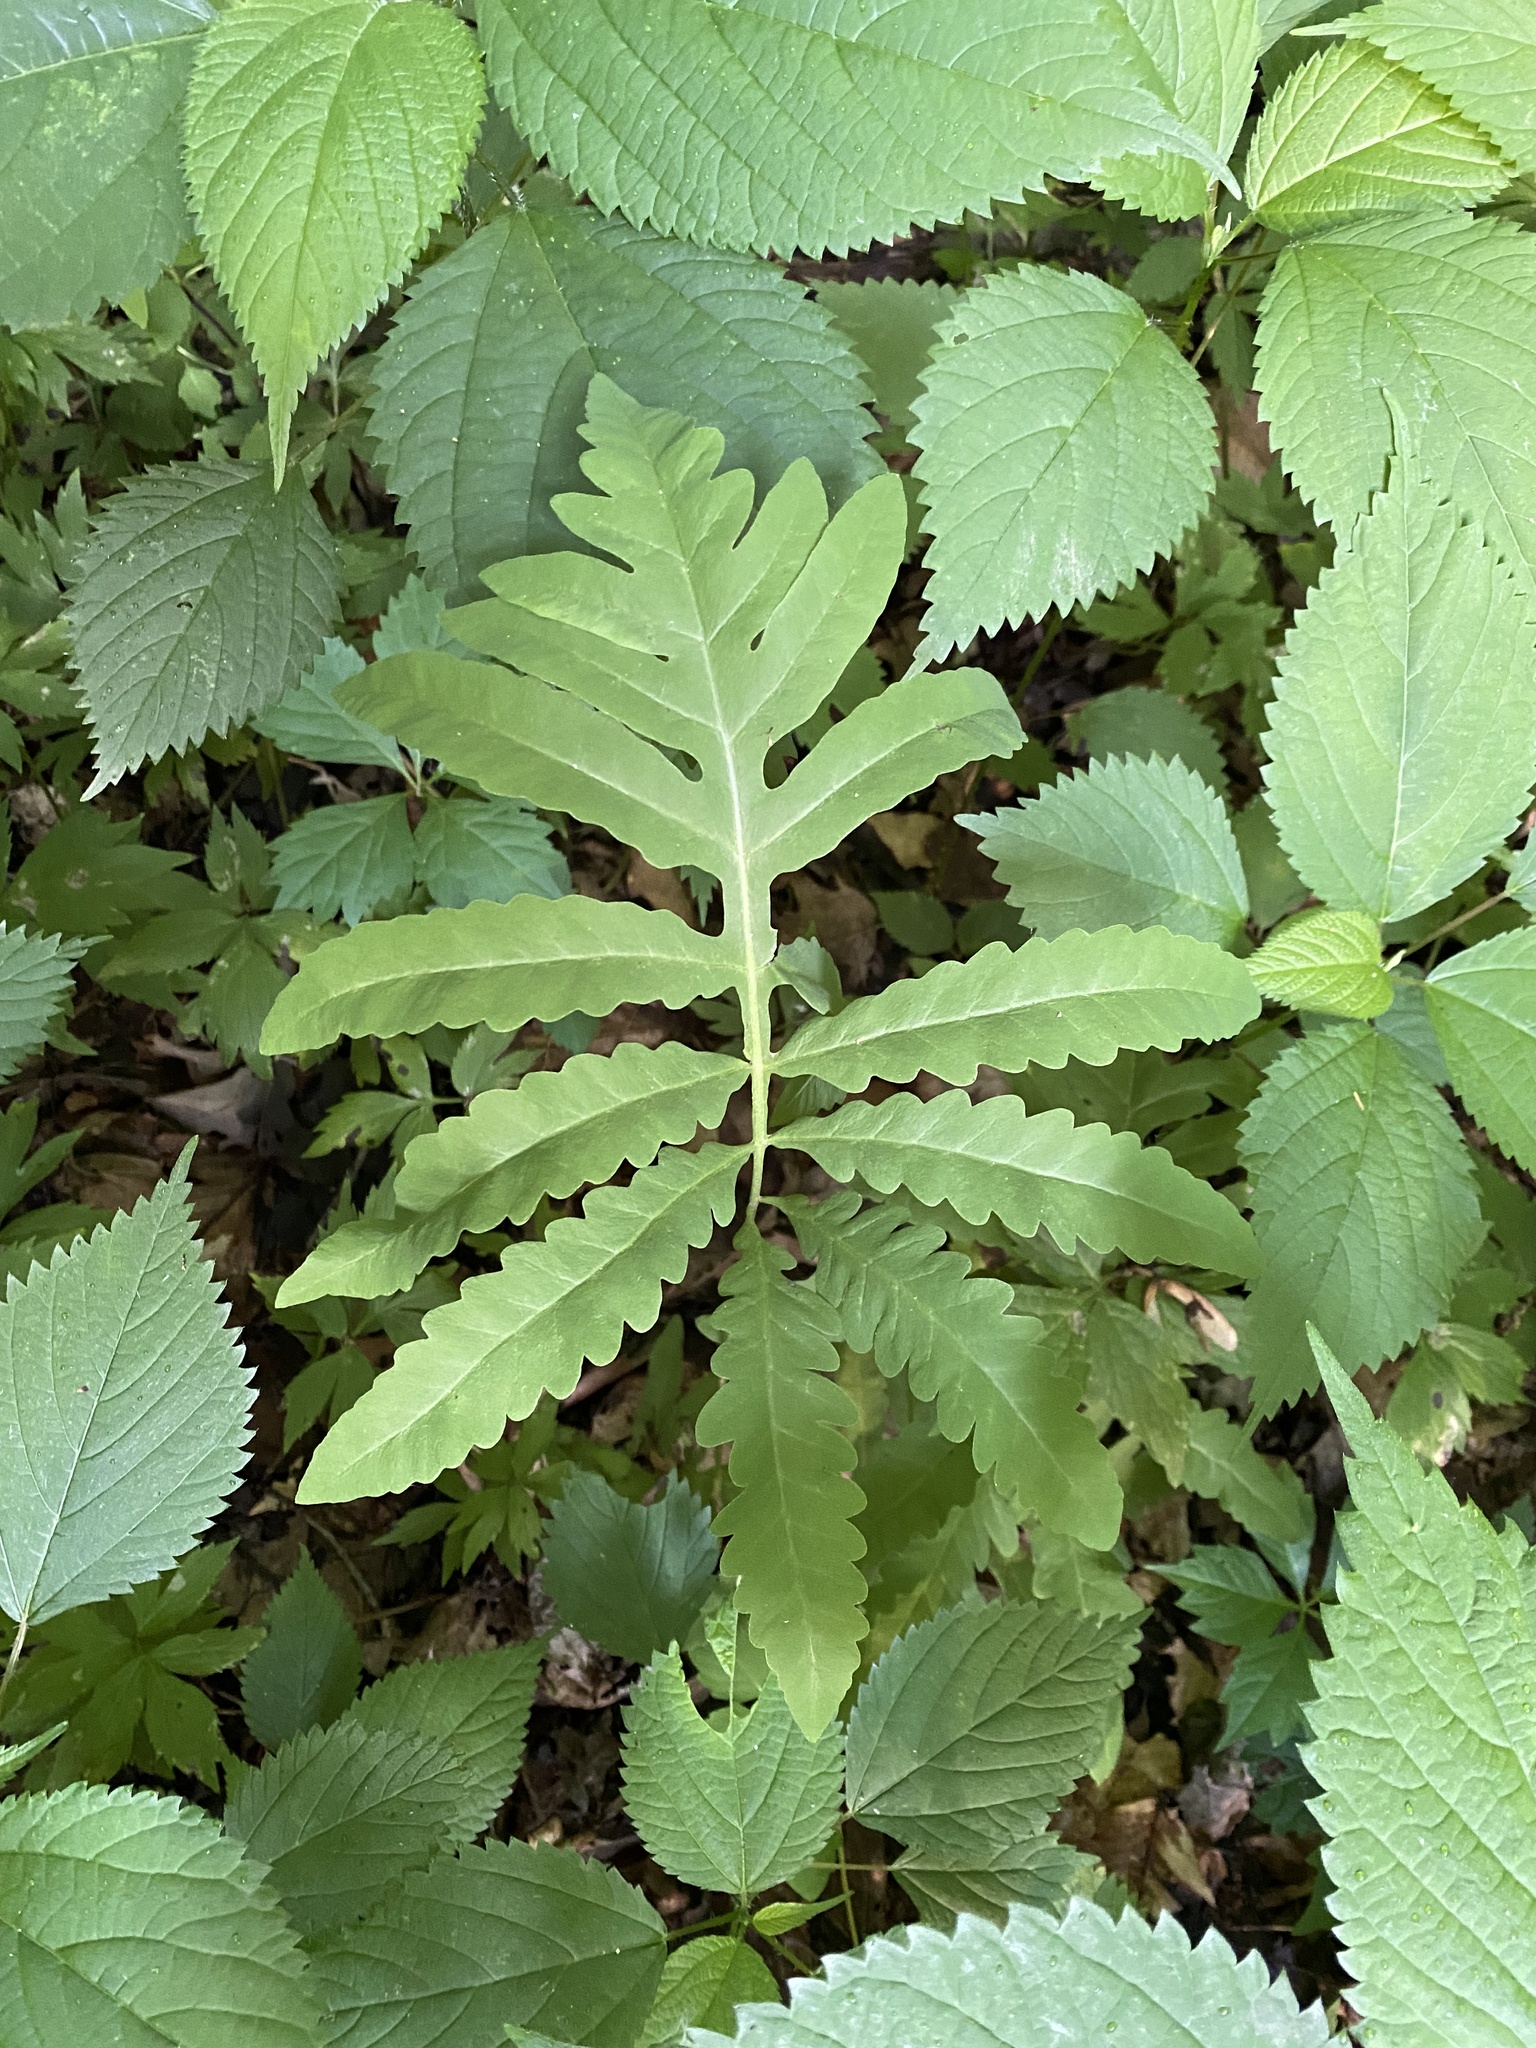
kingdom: Plantae
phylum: Tracheophyta
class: Polypodiopsida
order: Polypodiales
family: Onocleaceae
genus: Onoclea
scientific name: Onoclea sensibilis
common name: Sensitive fern
